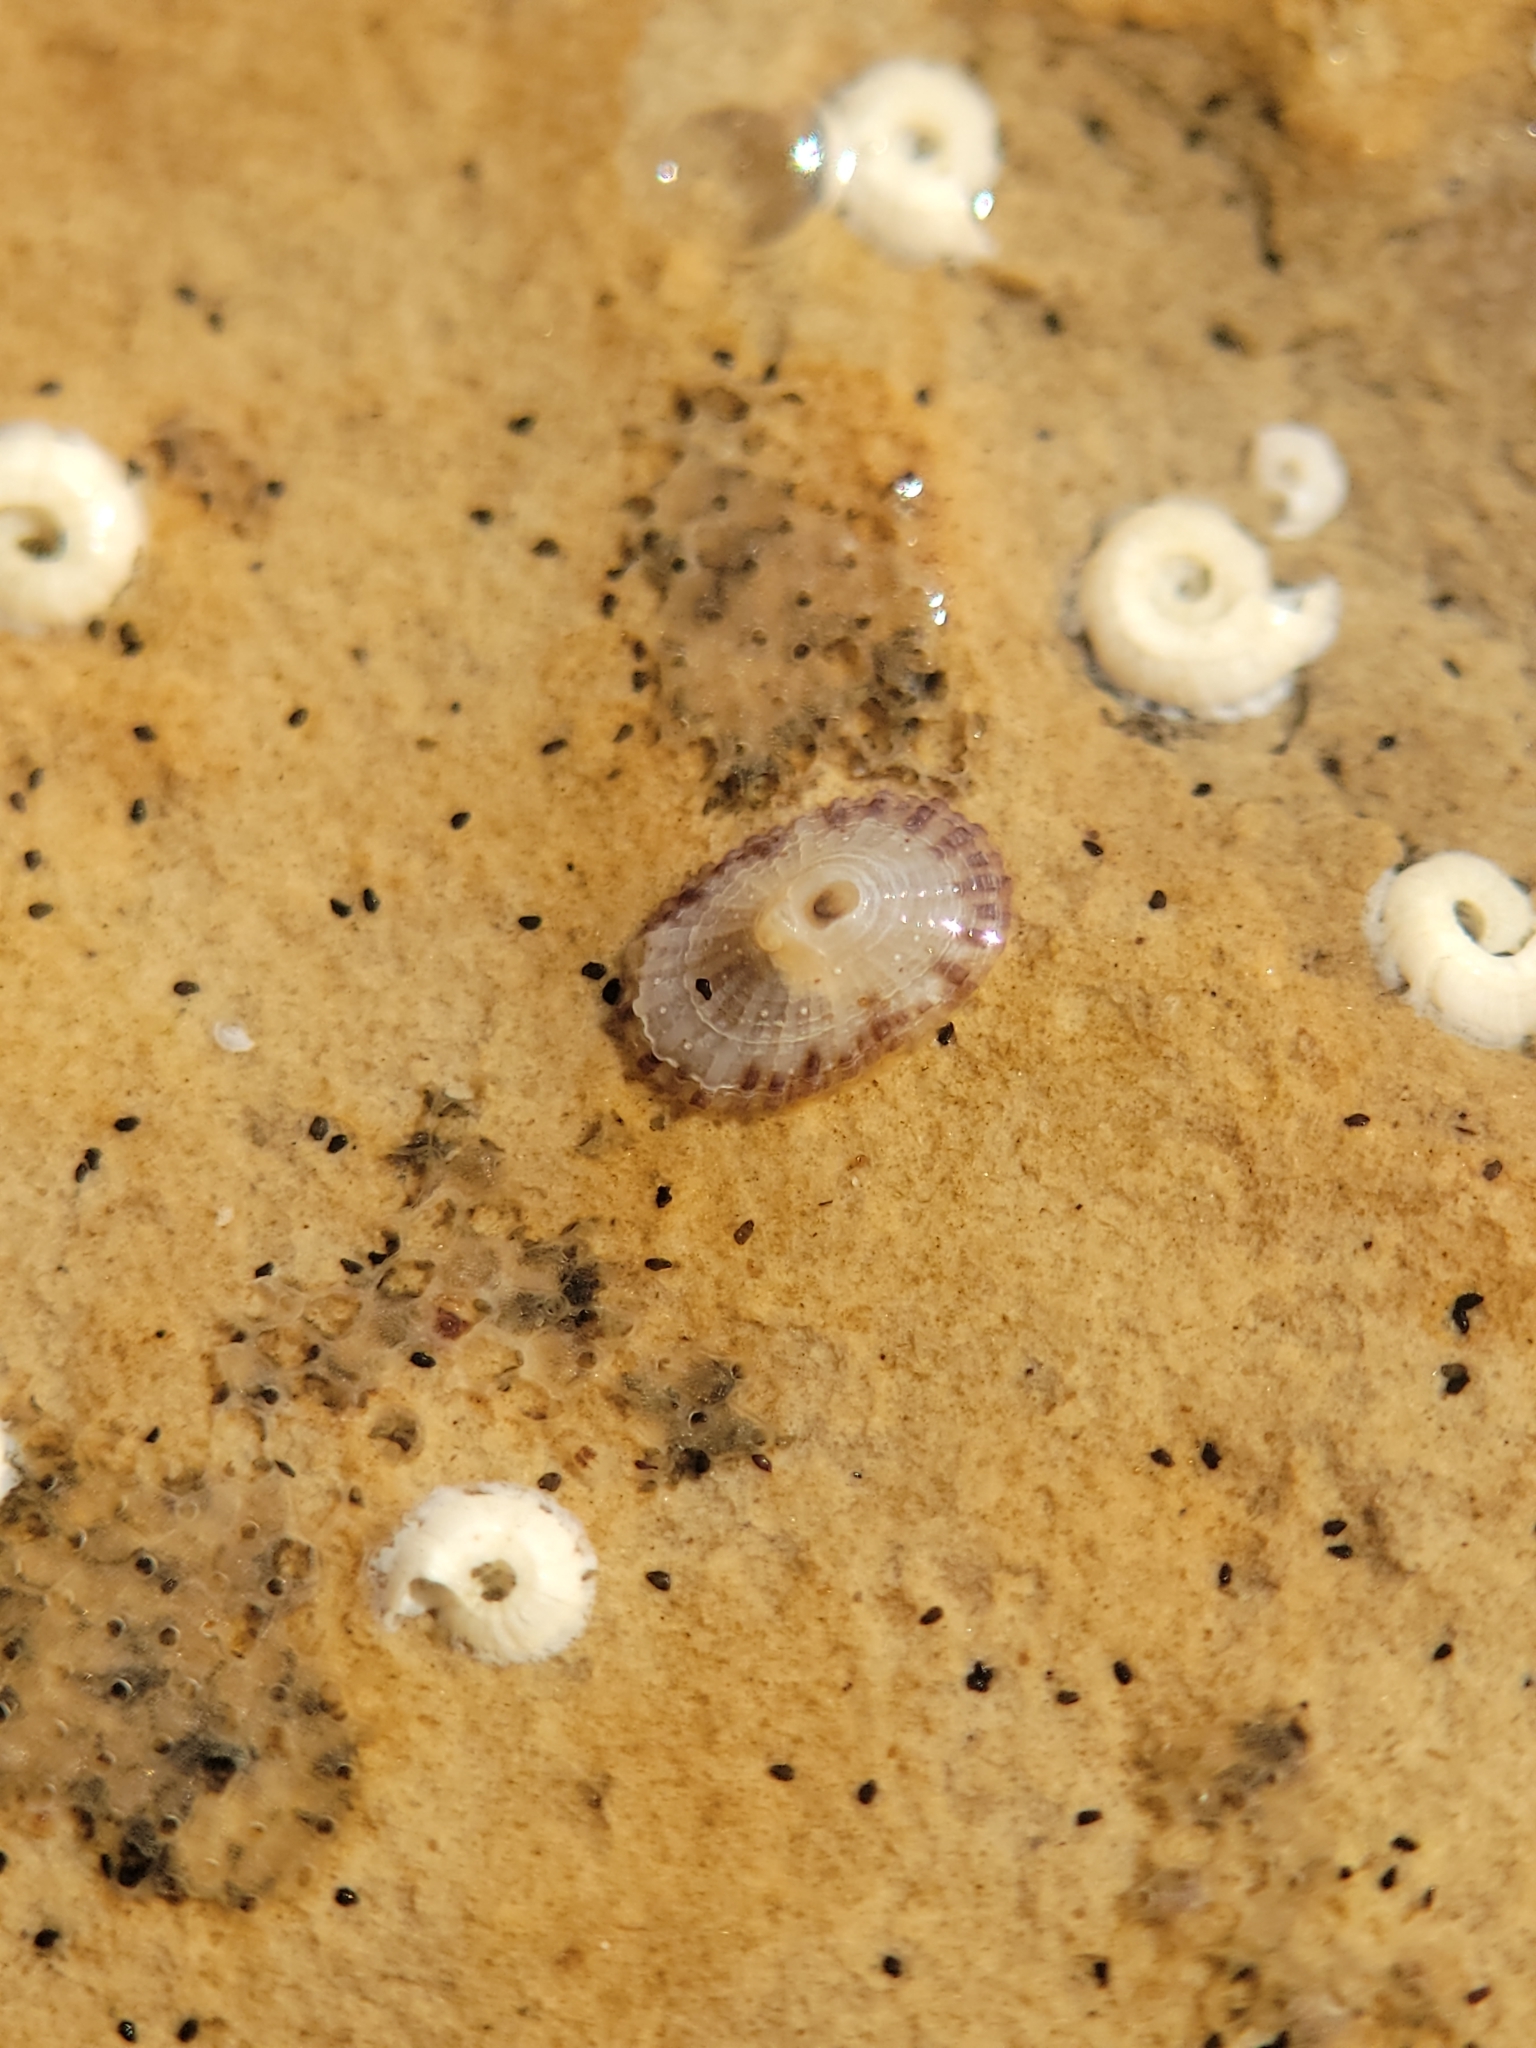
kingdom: Animalia
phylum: Mollusca
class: Gastropoda
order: Lepetellida
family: Fissurellidae
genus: Fissurella
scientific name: Fissurella volcano
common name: Volcano keyhole limpet
